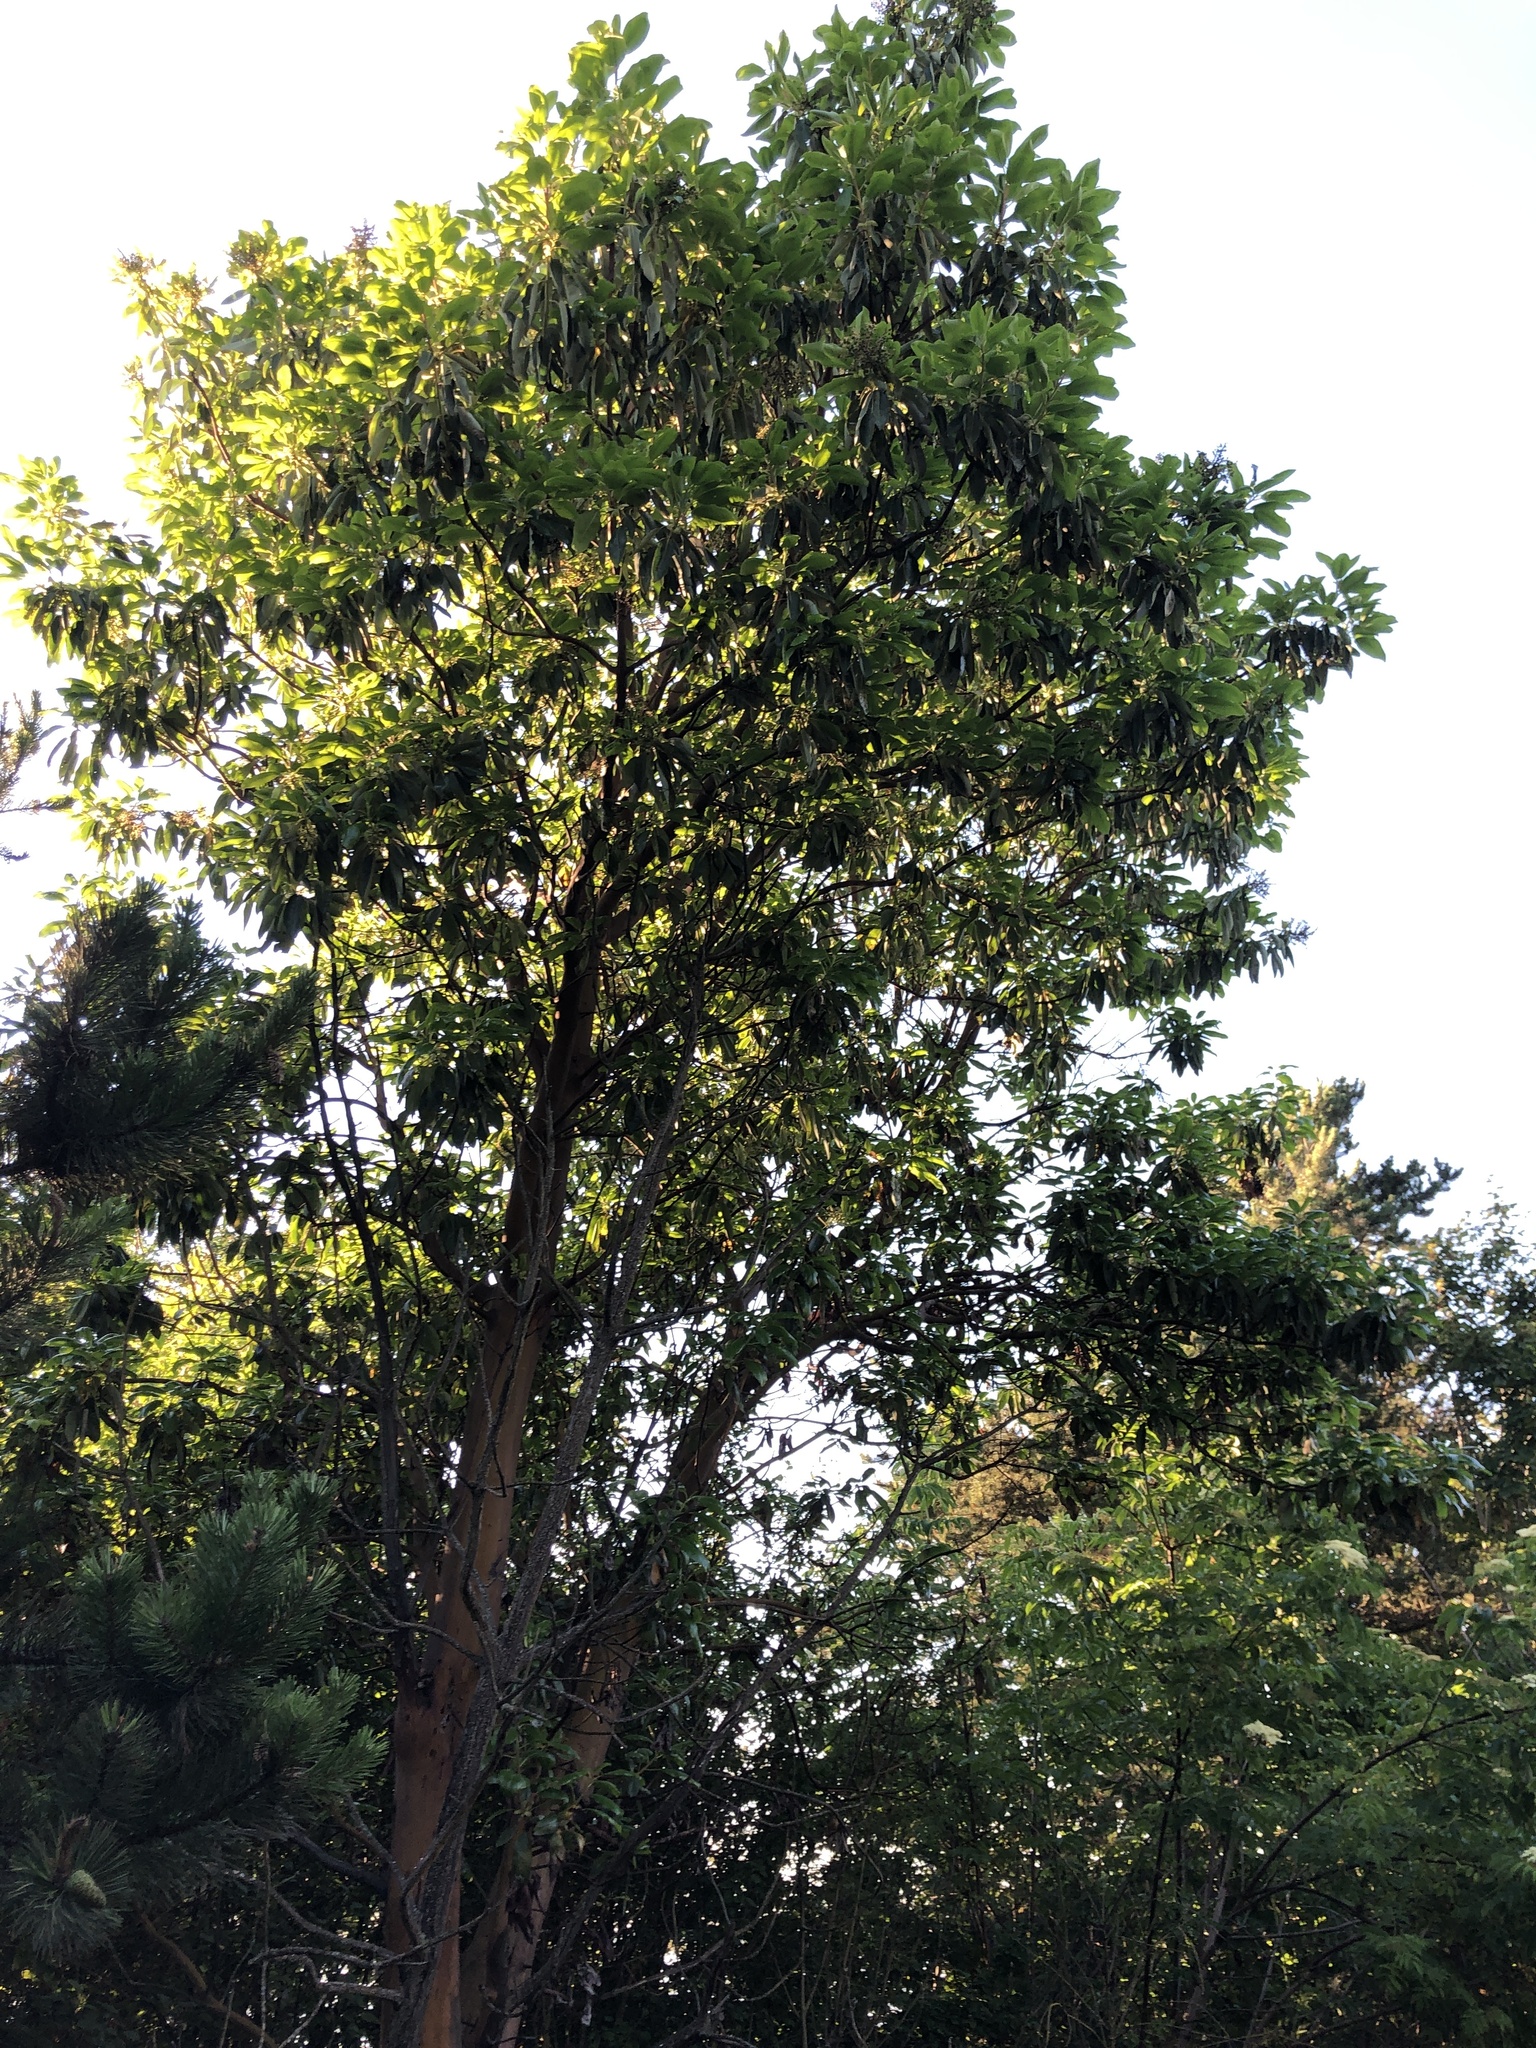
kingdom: Plantae
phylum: Tracheophyta
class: Magnoliopsida
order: Ericales
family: Ericaceae
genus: Arbutus
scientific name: Arbutus menziesii
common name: Pacific madrone
